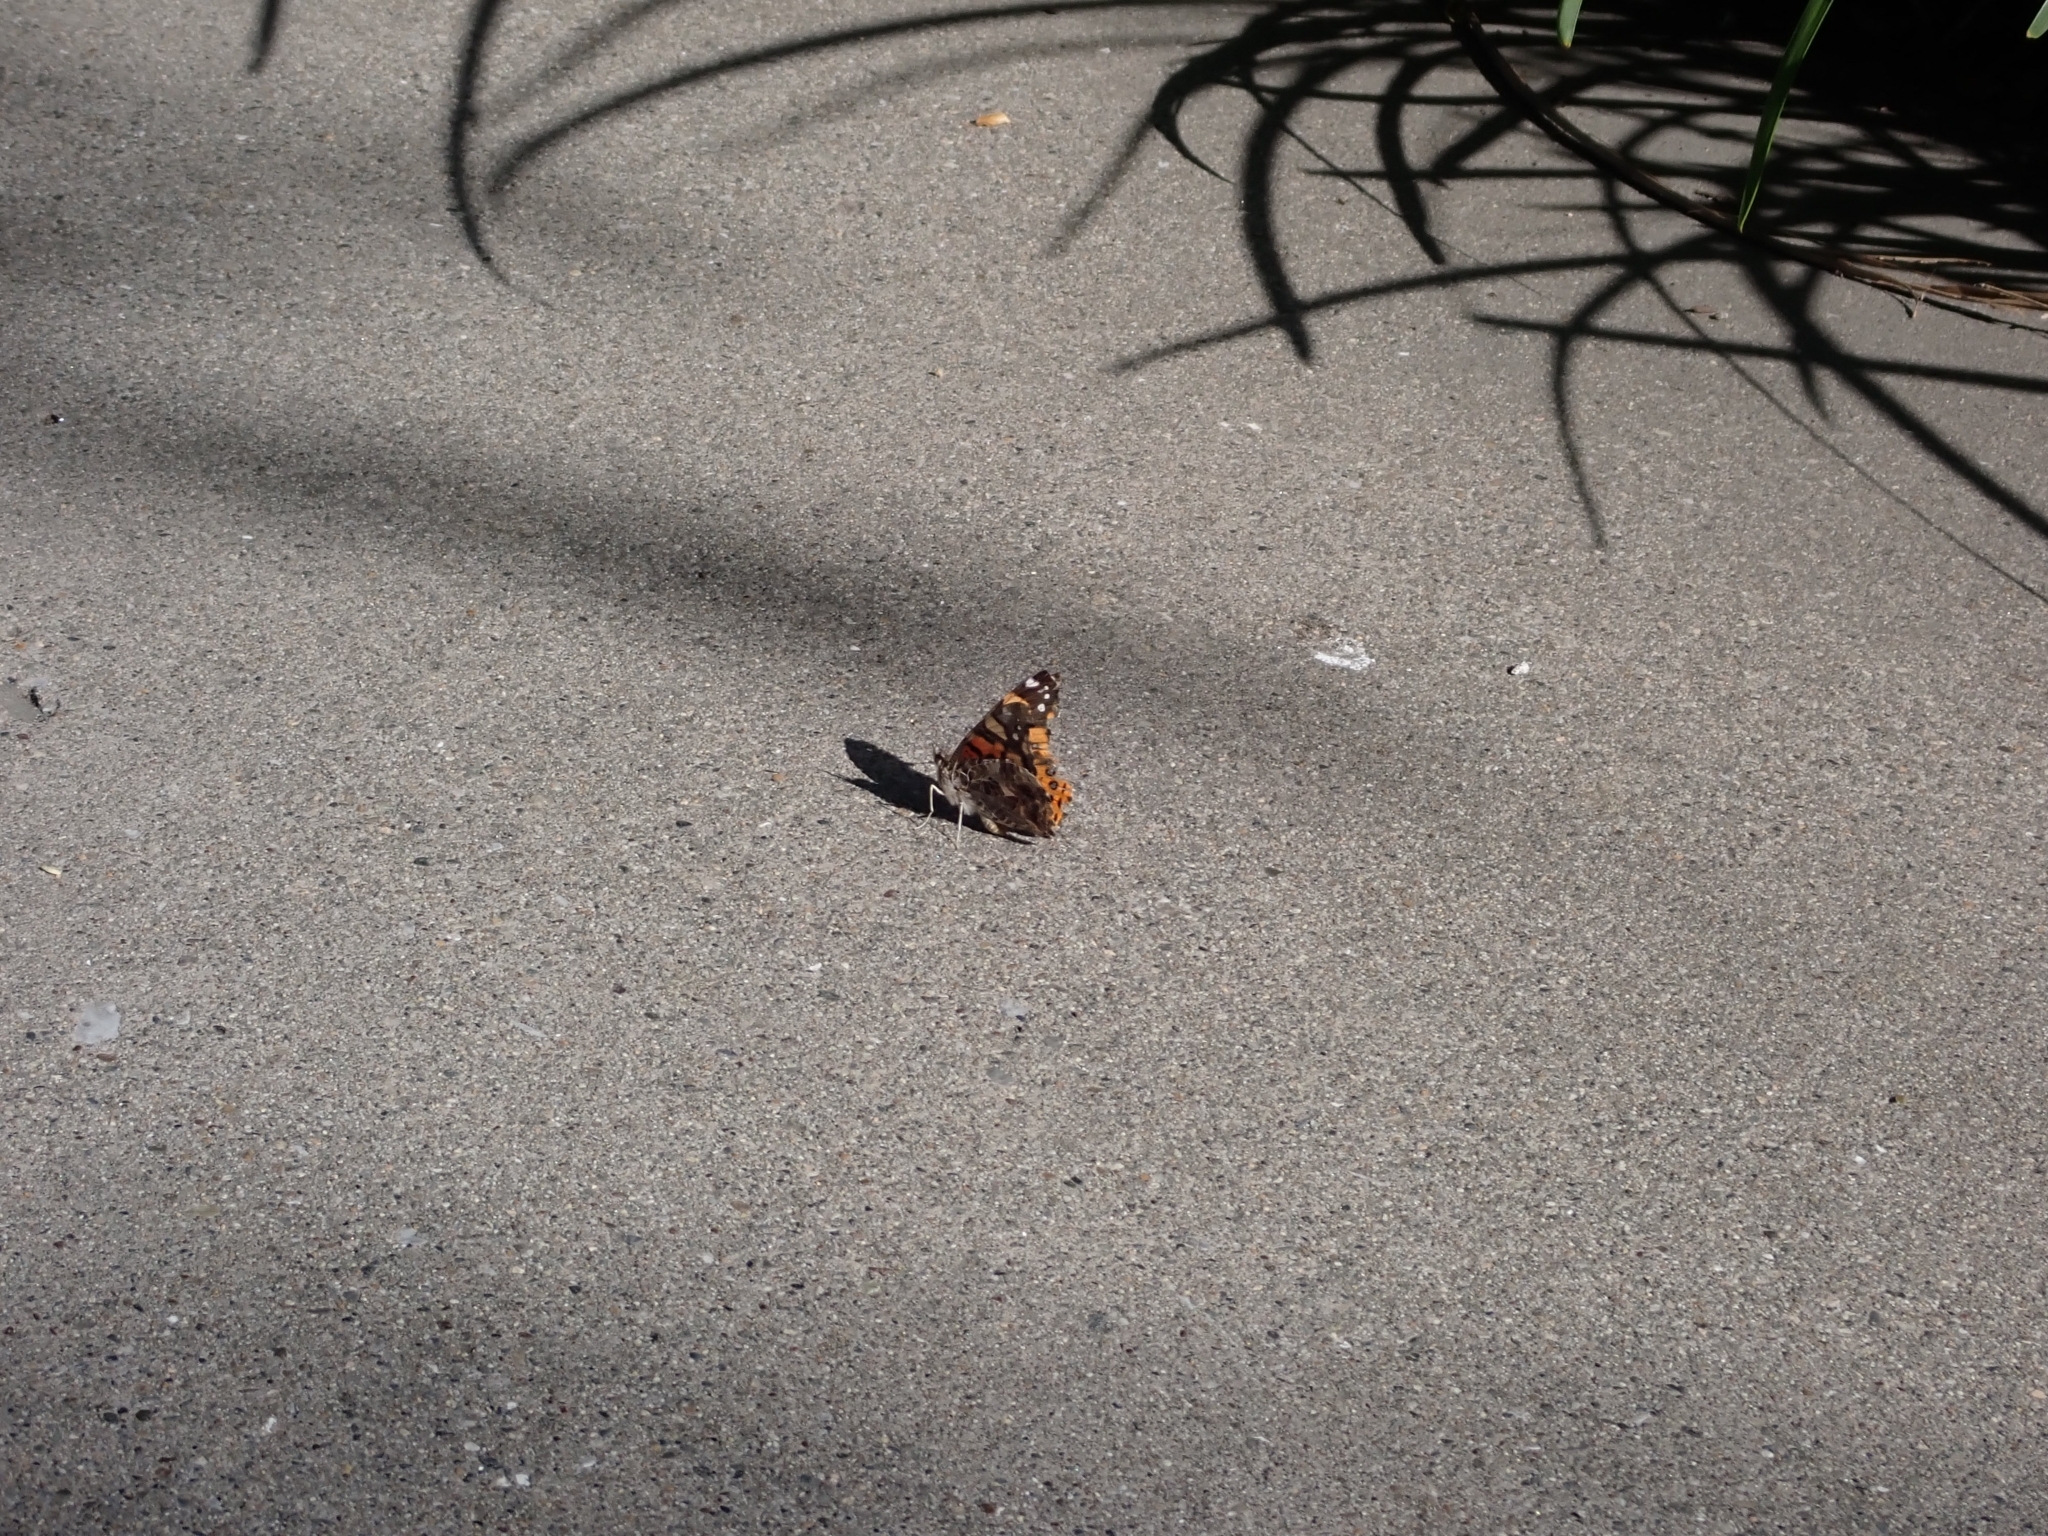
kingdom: Animalia
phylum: Arthropoda
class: Insecta
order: Lepidoptera
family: Nymphalidae
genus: Vanessa
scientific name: Vanessa annabella
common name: West coast lady
